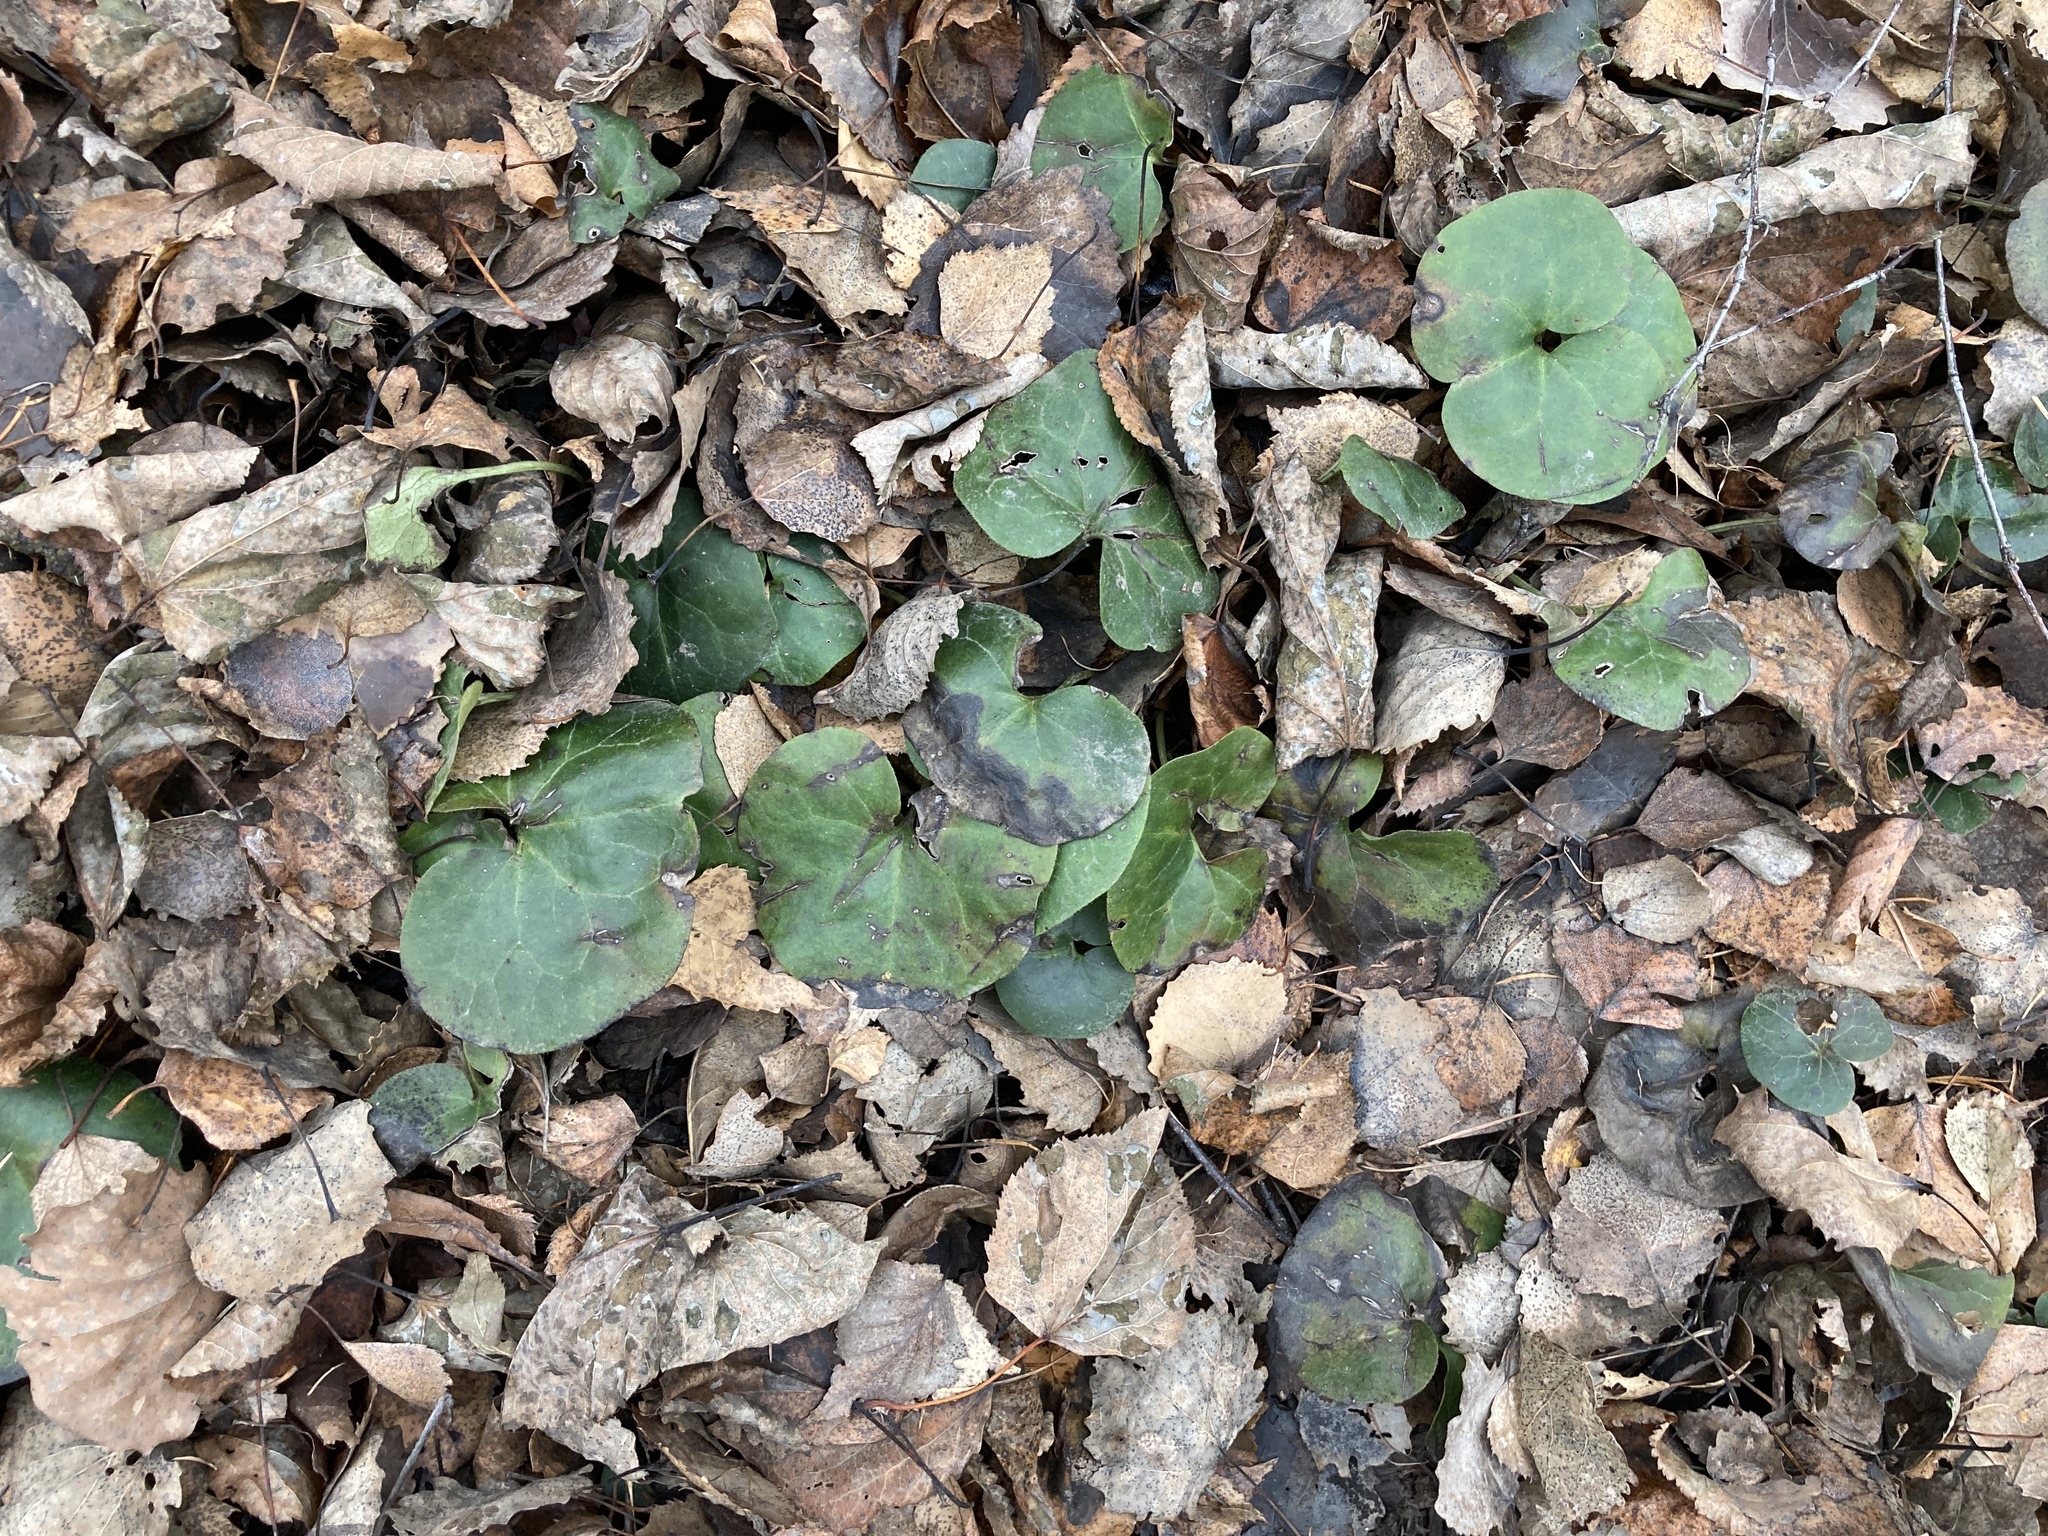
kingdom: Plantae
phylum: Tracheophyta
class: Magnoliopsida
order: Piperales
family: Aristolochiaceae
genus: Asarum
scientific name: Asarum europaeum
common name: Asarabacca
